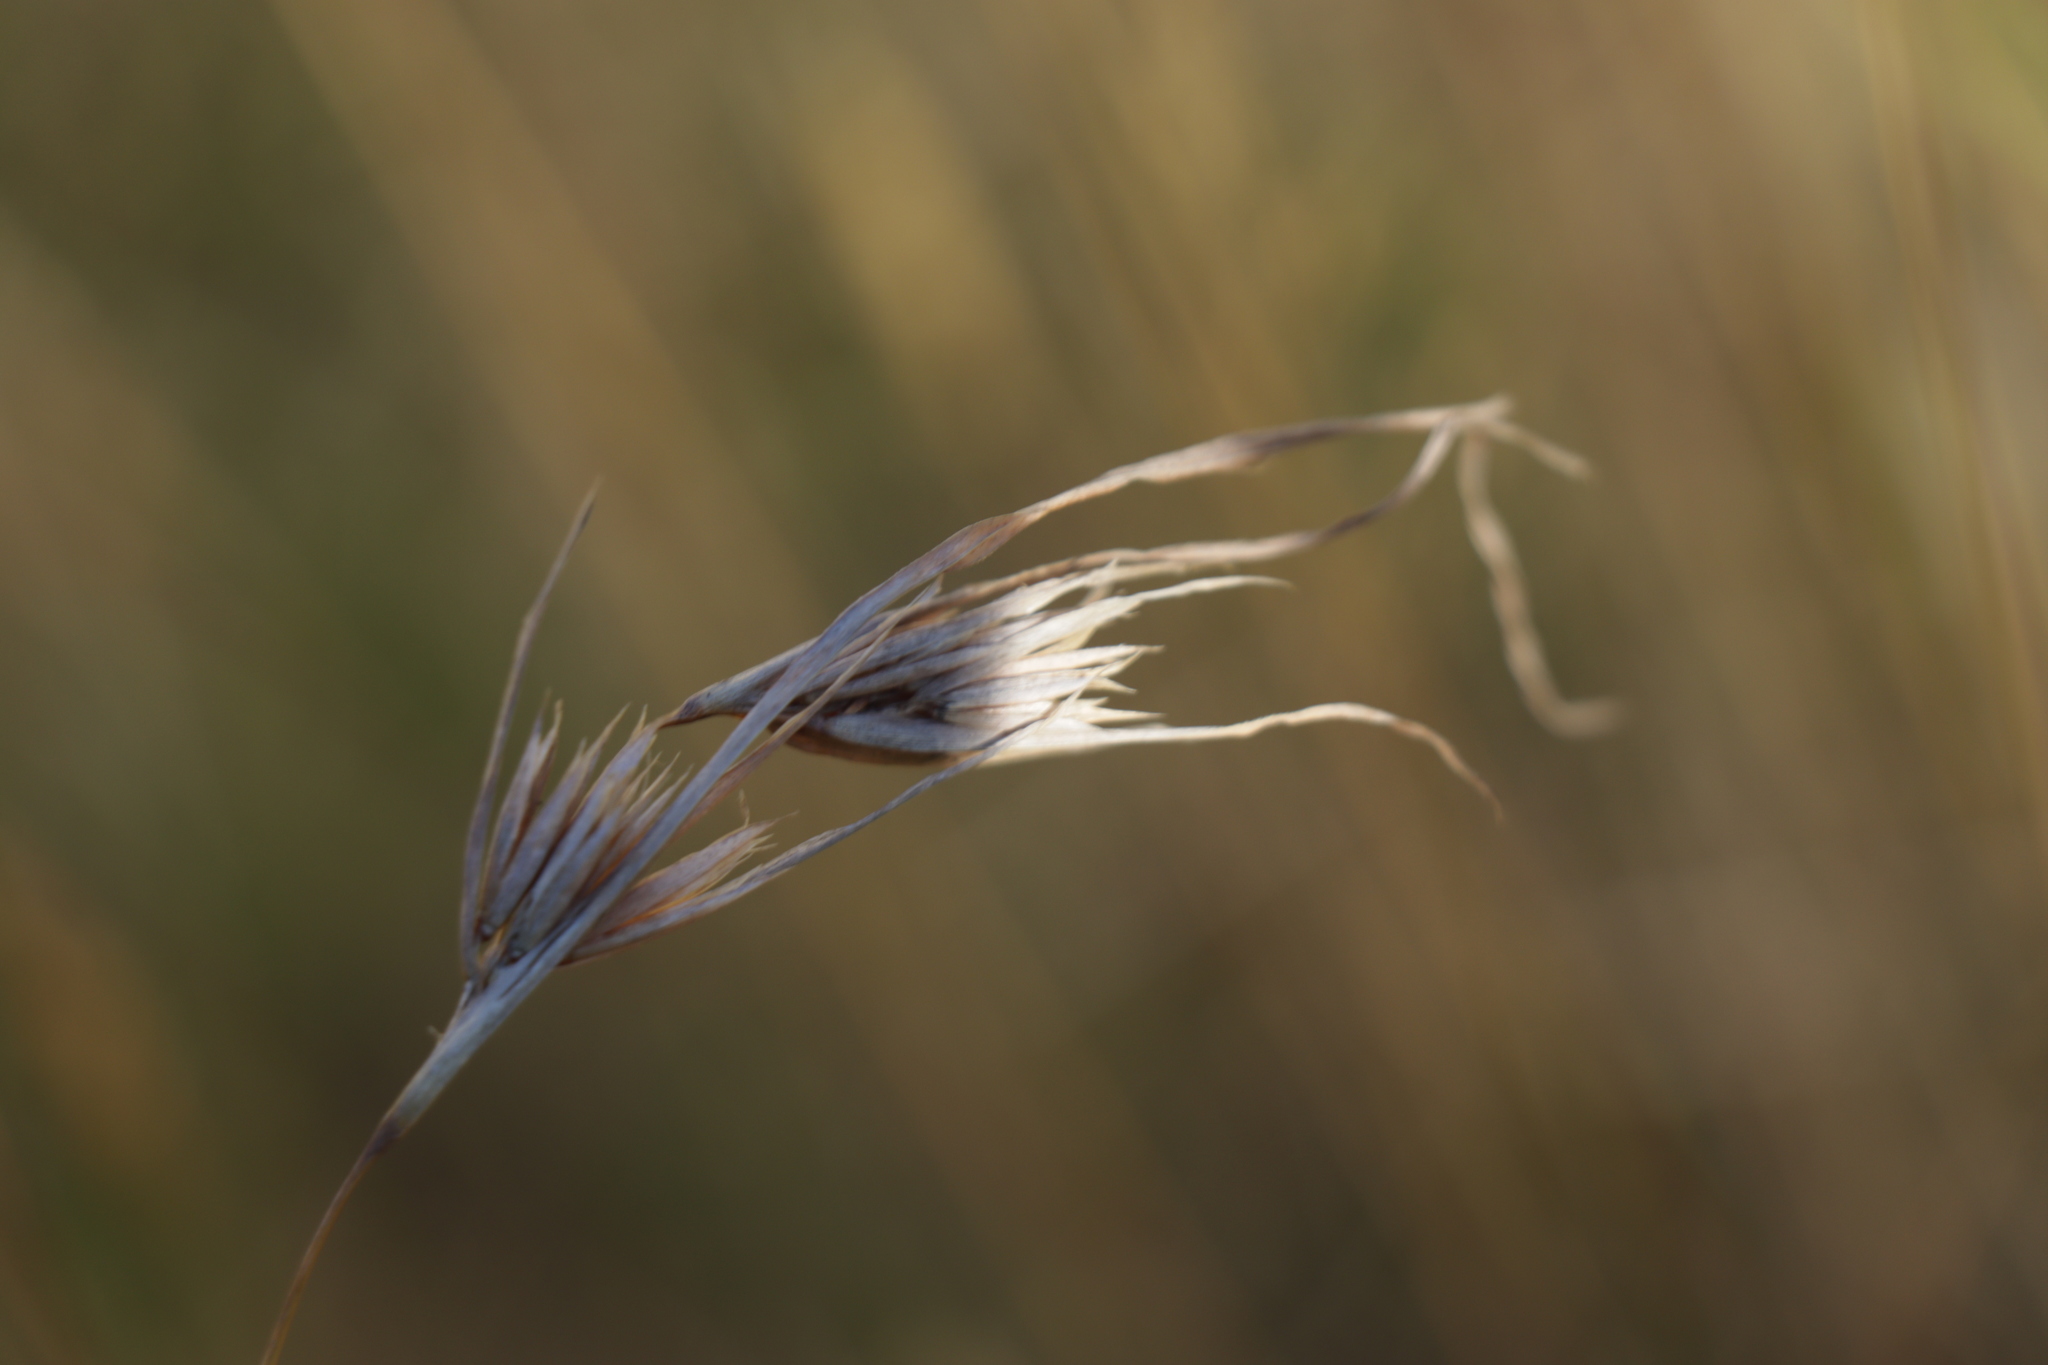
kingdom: Plantae
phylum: Tracheophyta
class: Liliopsida
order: Poales
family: Poaceae
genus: Themeda
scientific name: Themeda triandra
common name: Kangaroo grass
